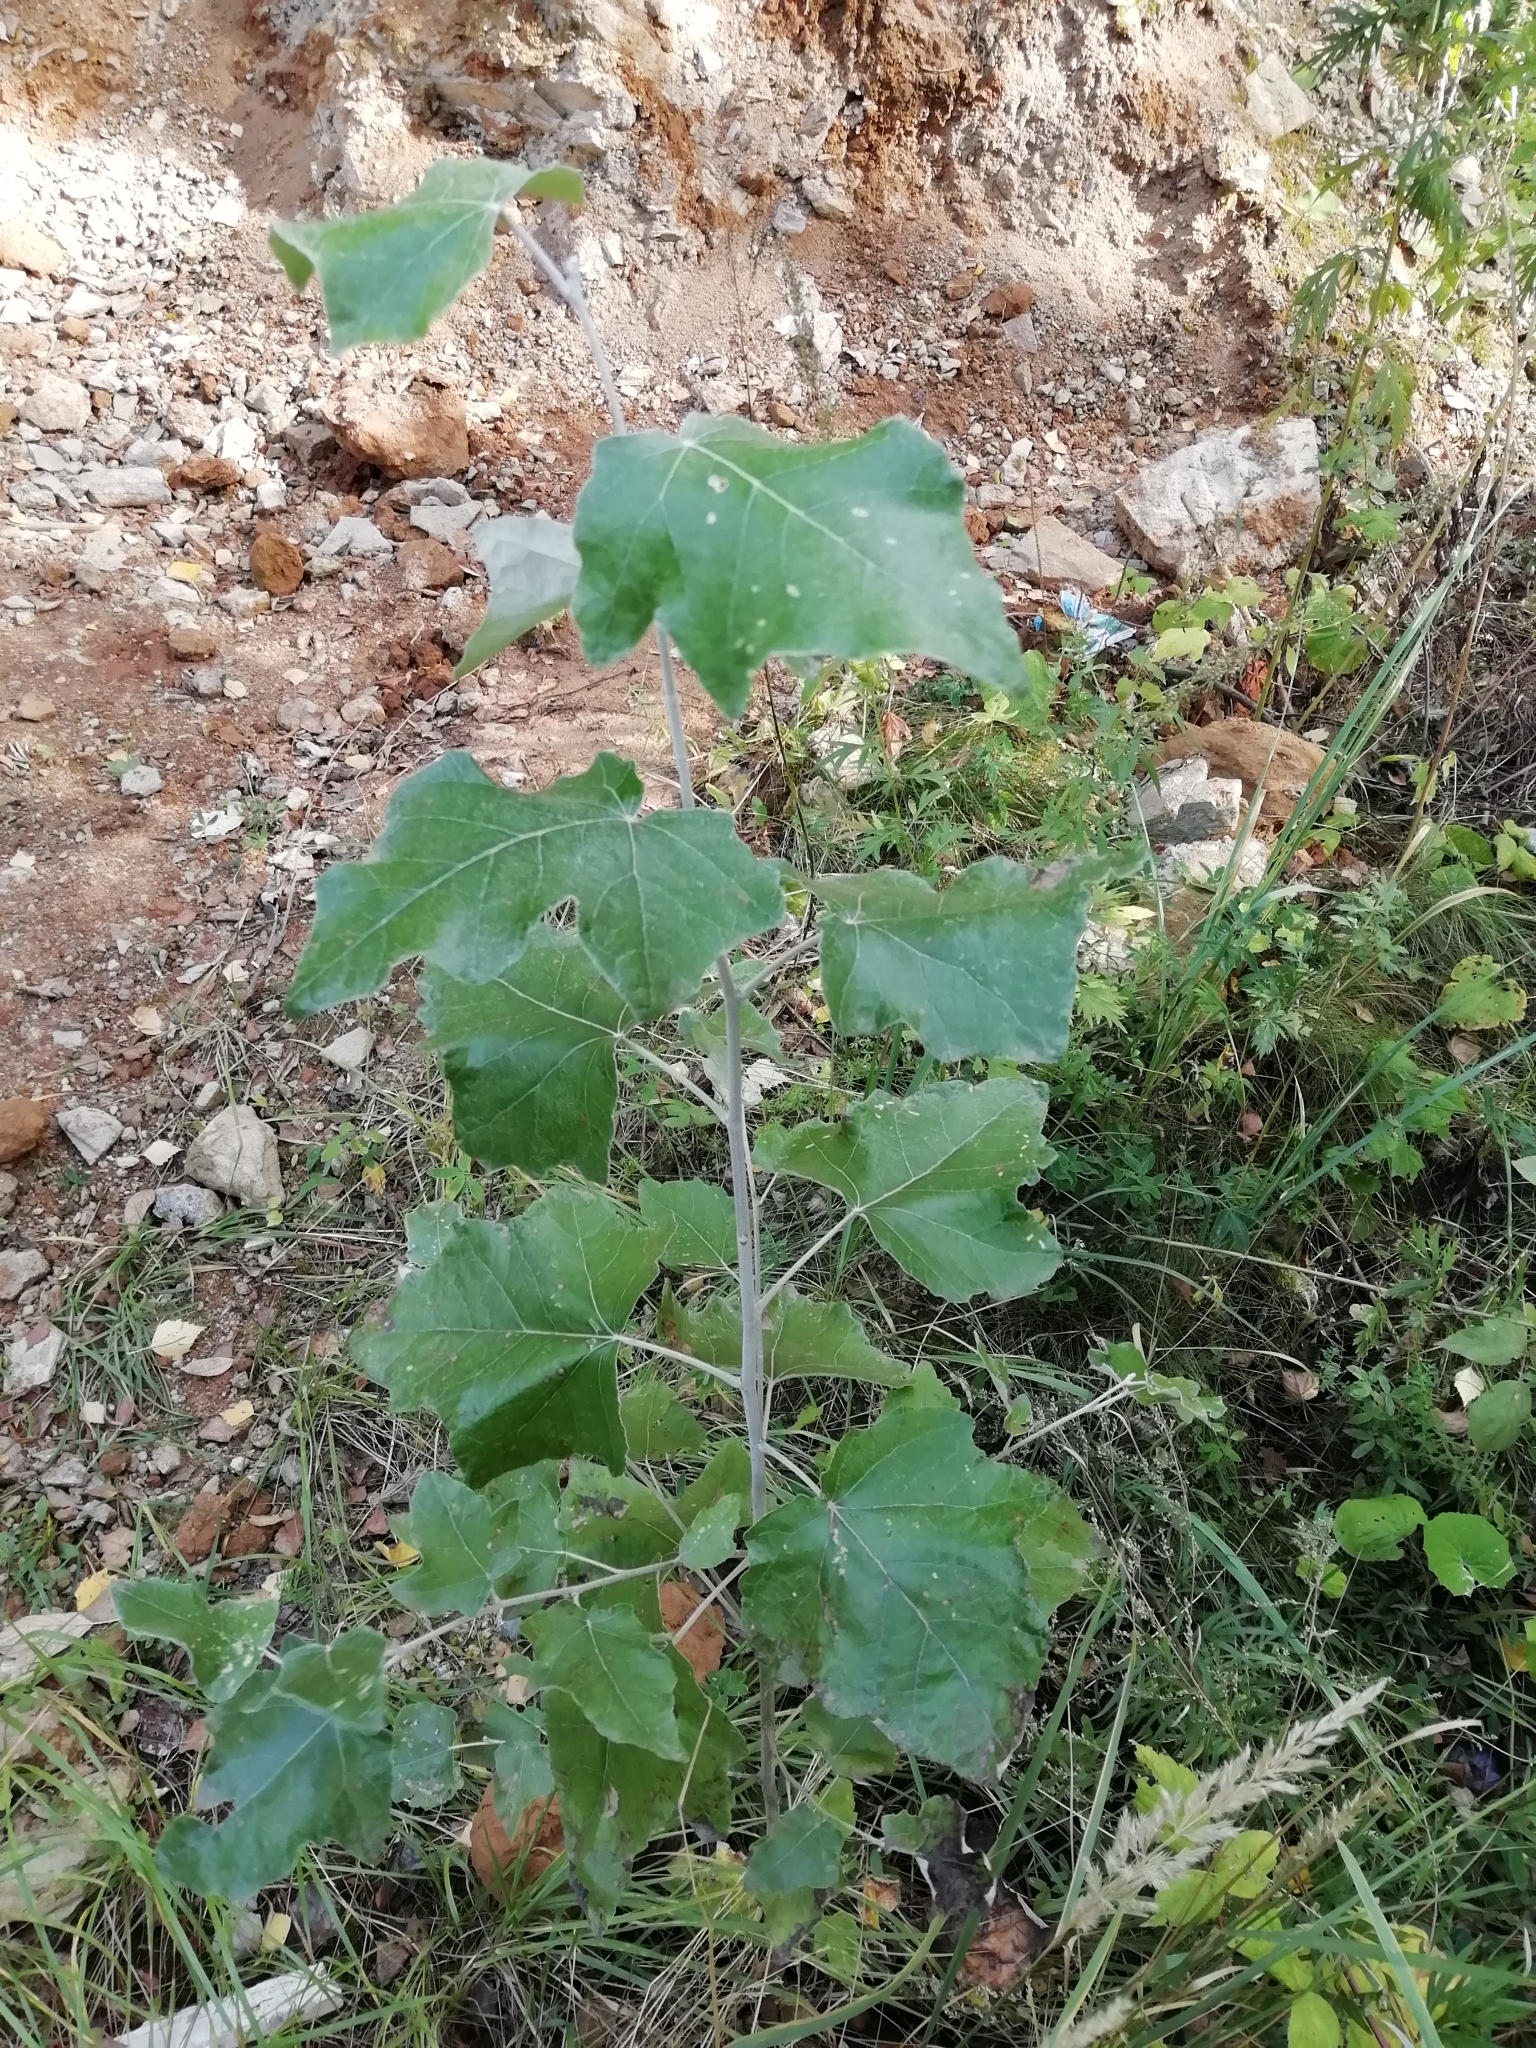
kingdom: Plantae
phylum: Tracheophyta
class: Magnoliopsida
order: Malpighiales
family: Salicaceae
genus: Populus
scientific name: Populus alba
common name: White poplar
